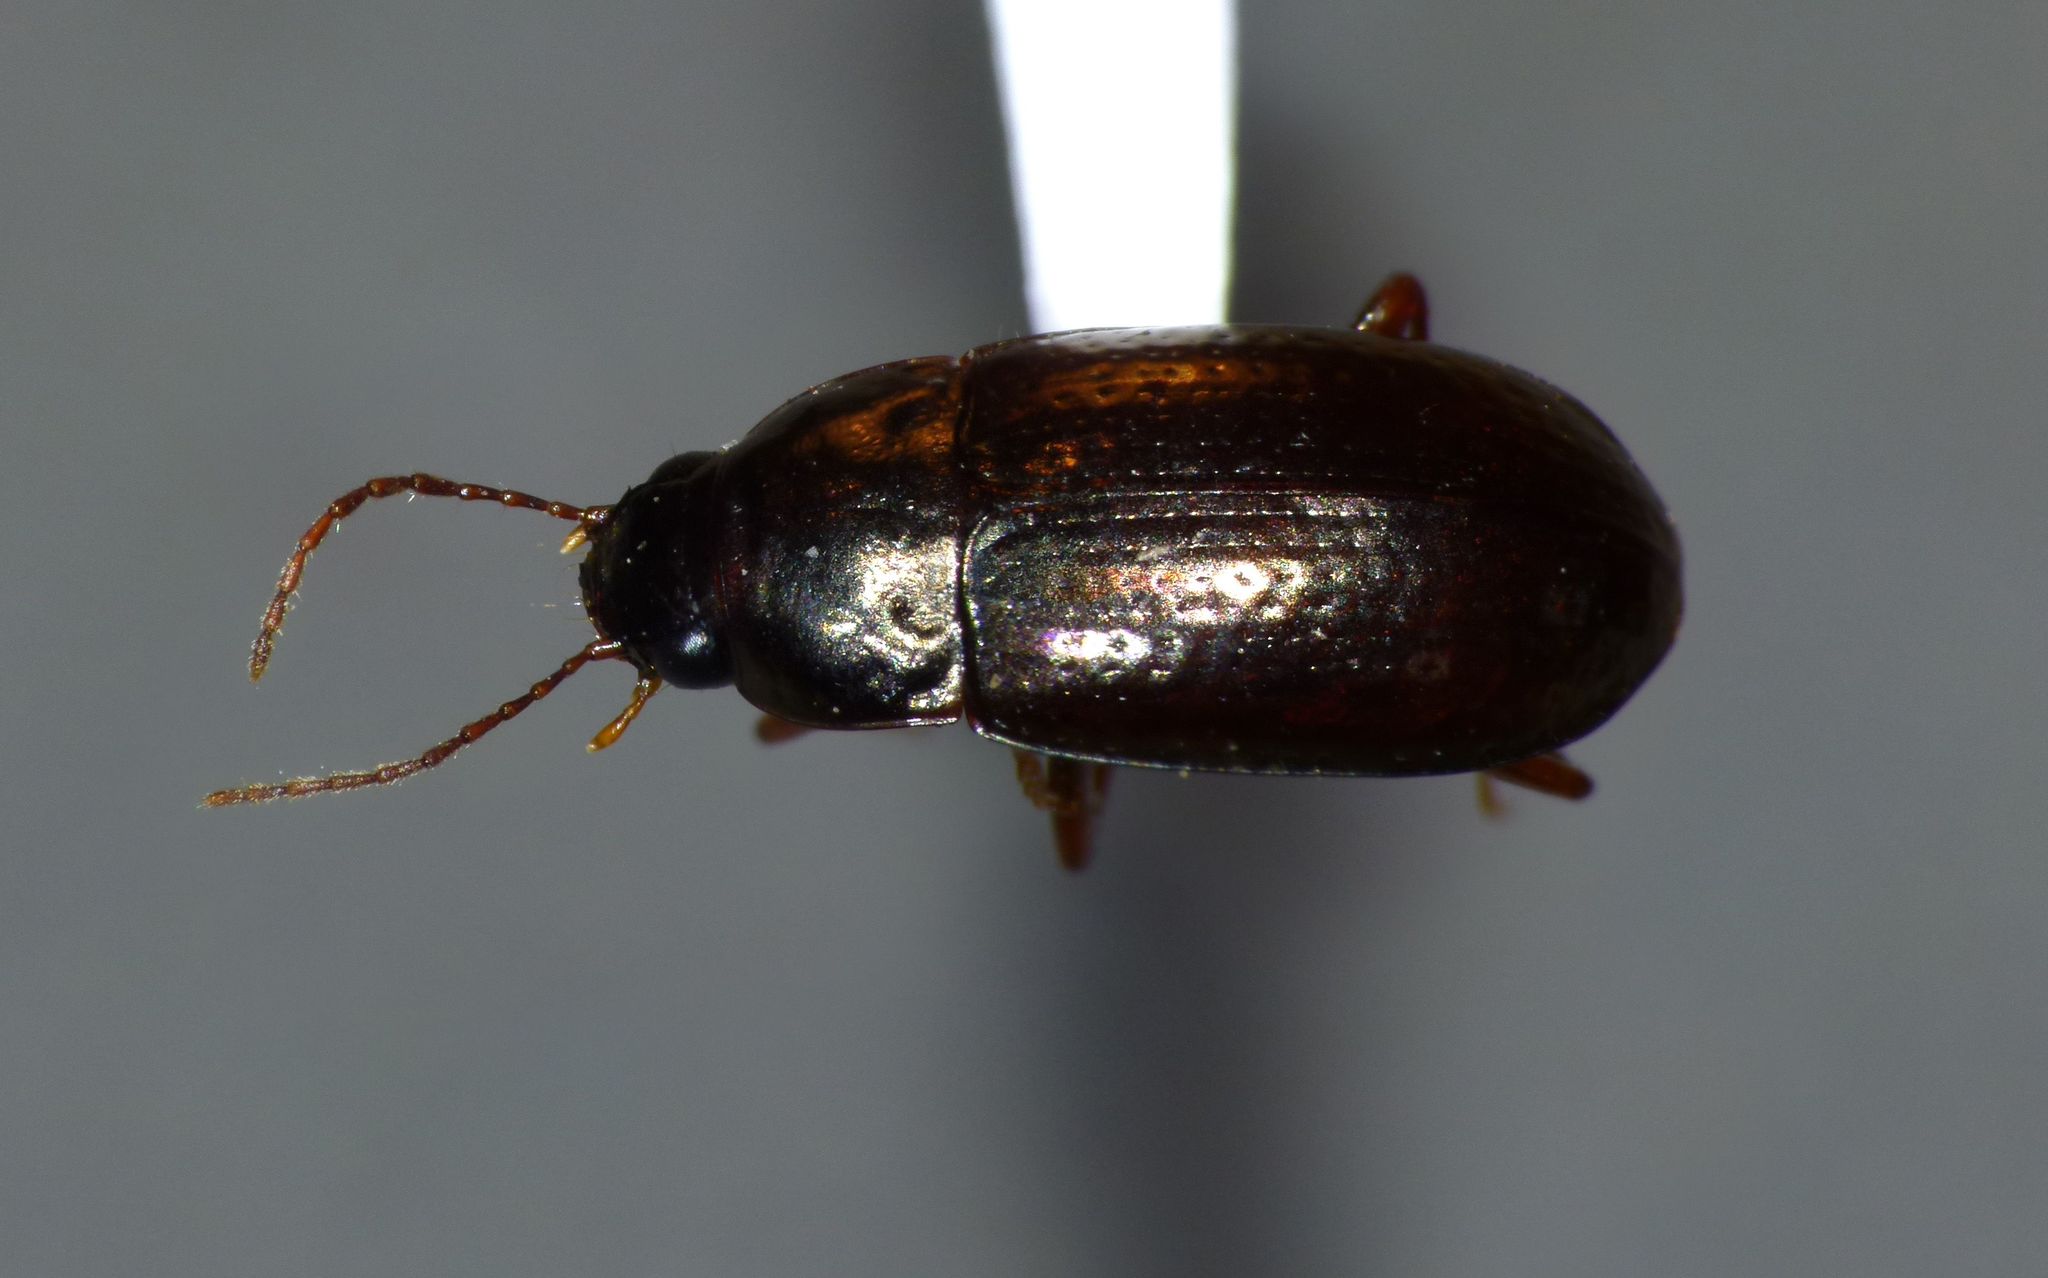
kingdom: Animalia
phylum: Arthropoda
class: Insecta
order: Coleoptera
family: Carabidae
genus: Amarotypus
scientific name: Amarotypus edwardsii
